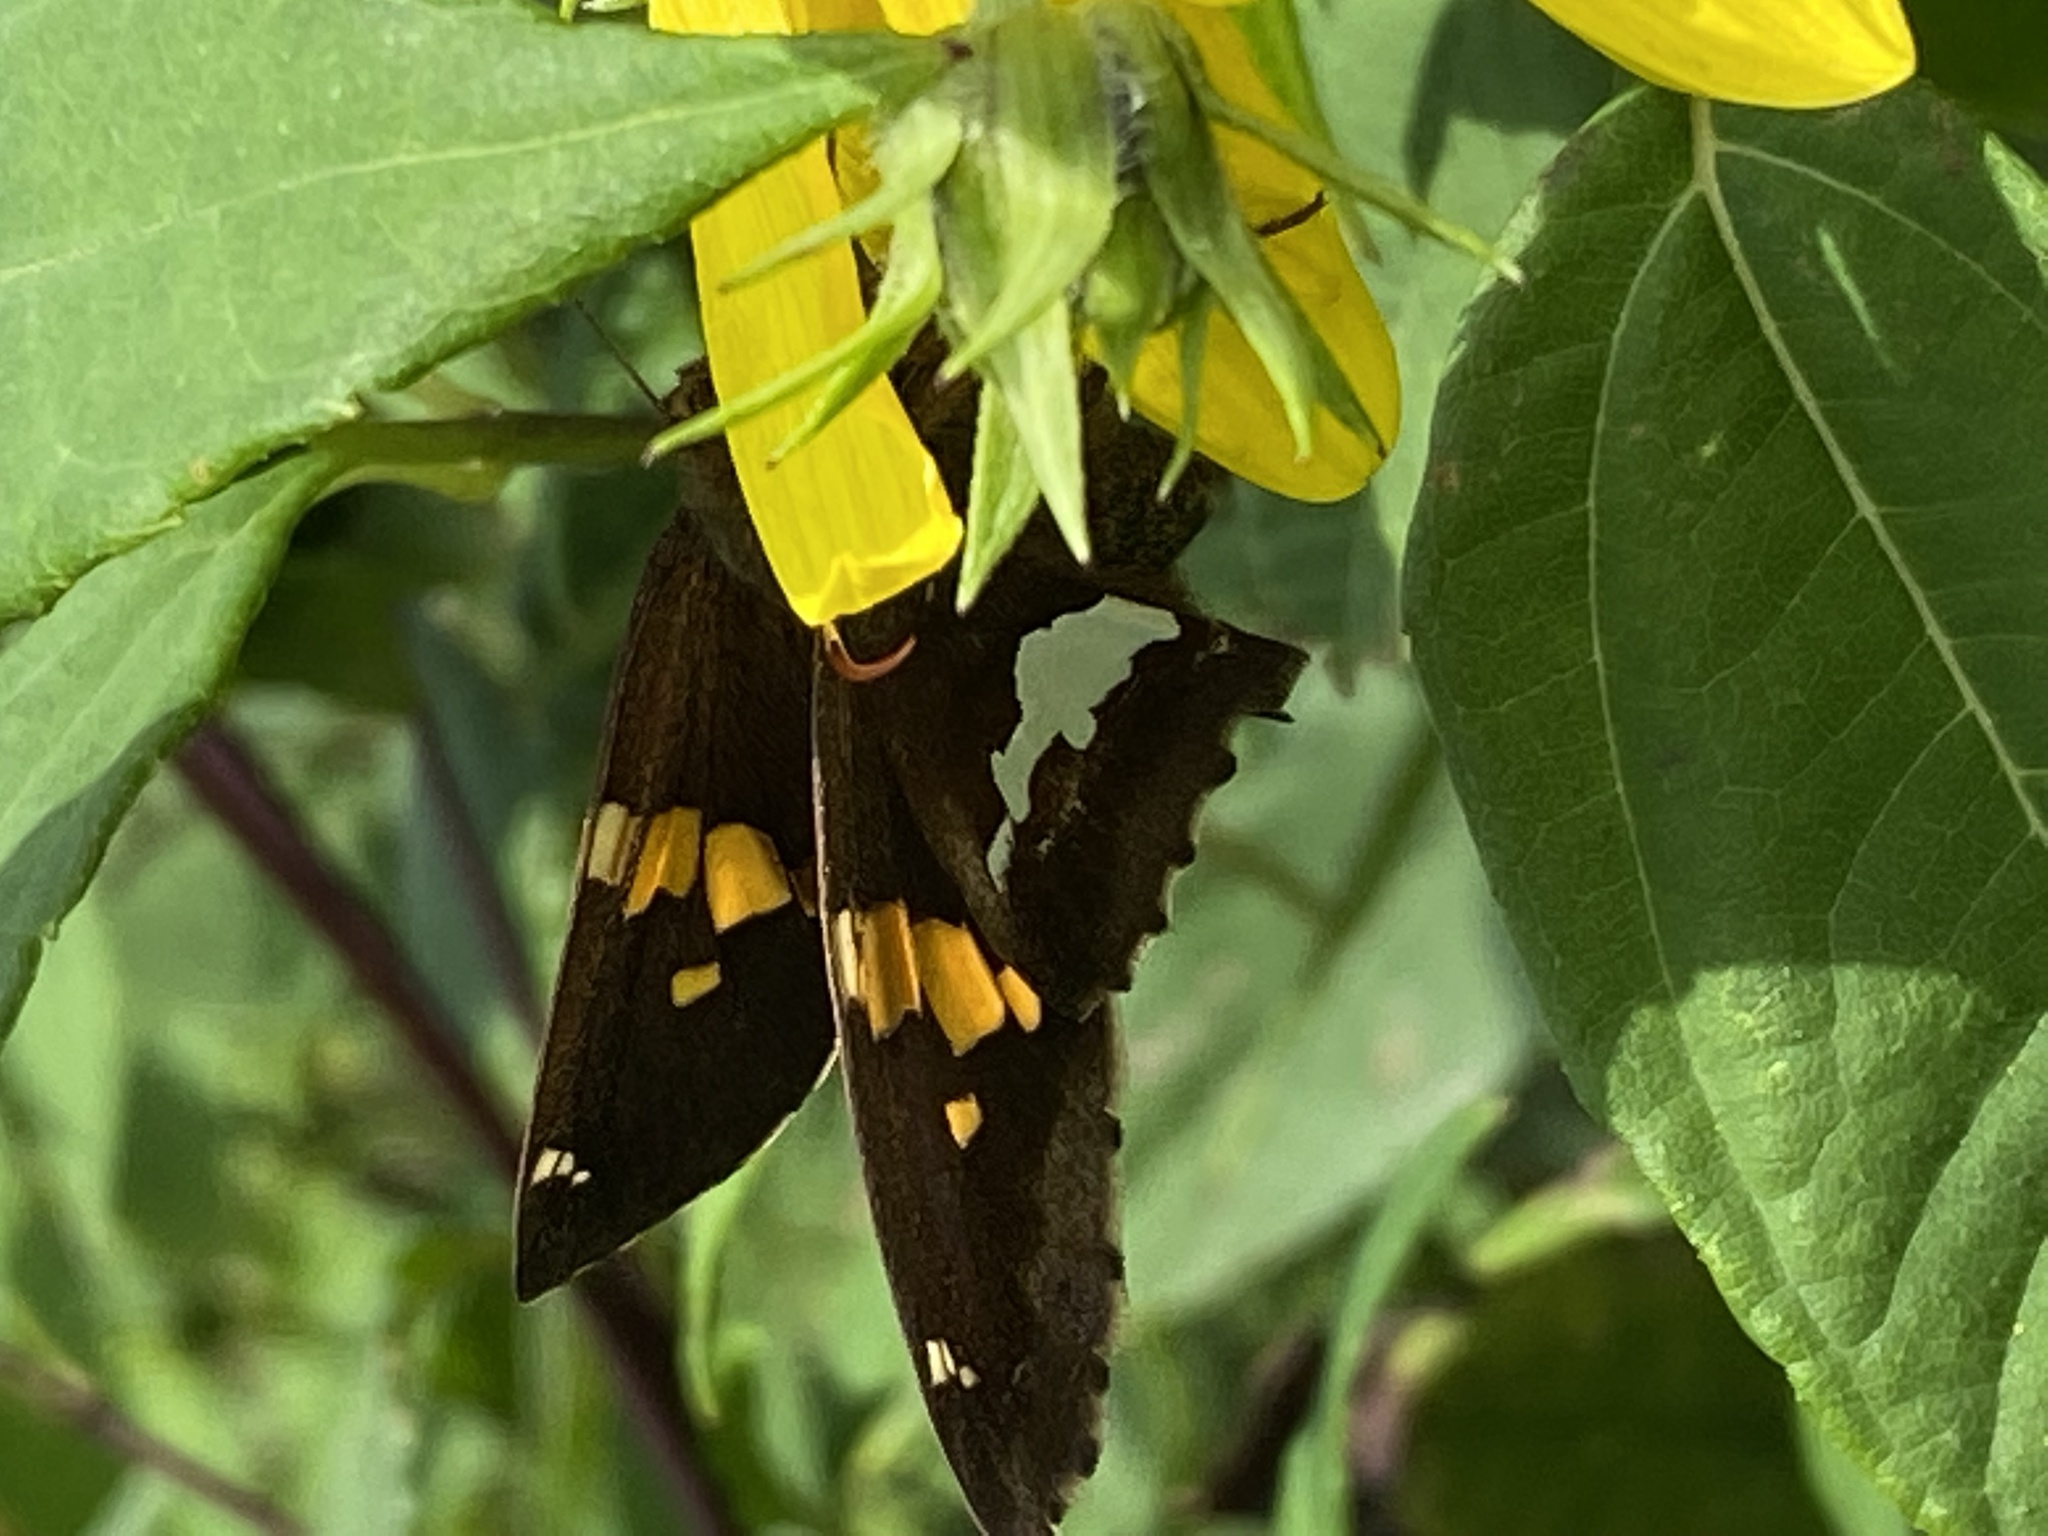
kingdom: Animalia
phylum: Arthropoda
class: Insecta
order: Lepidoptera
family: Hesperiidae
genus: Epargyreus
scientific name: Epargyreus clarus
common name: Silver-spotted skipper
